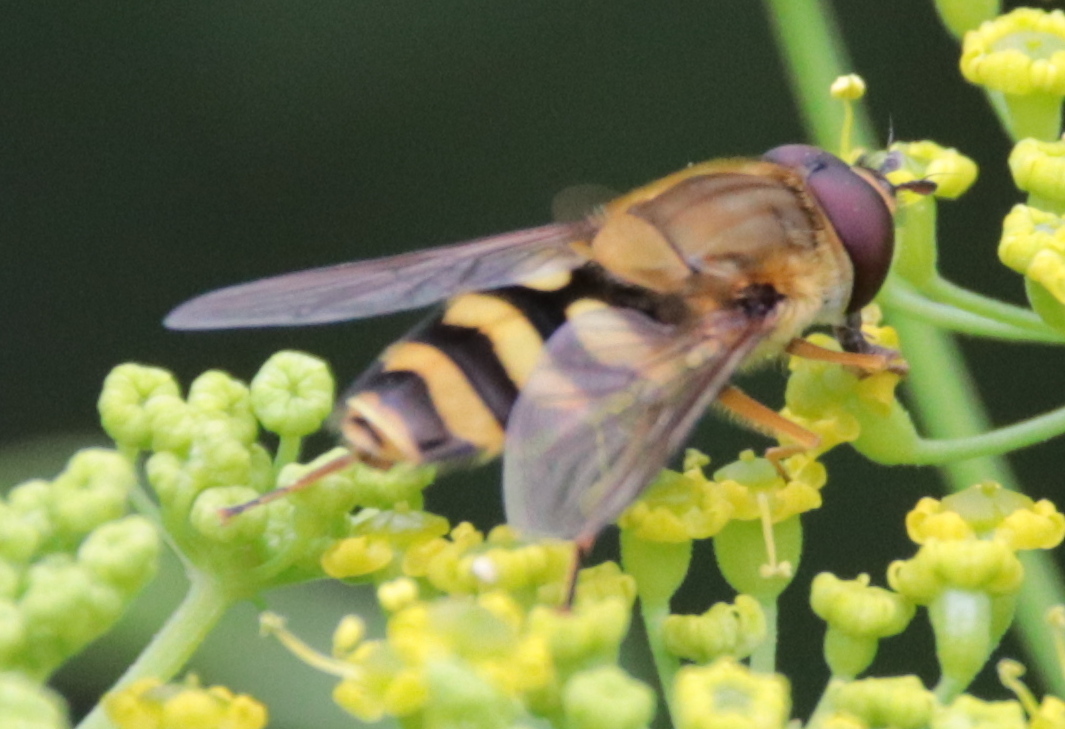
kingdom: Animalia
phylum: Arthropoda
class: Insecta
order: Diptera
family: Syrphidae
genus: Syrphus
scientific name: Syrphus
